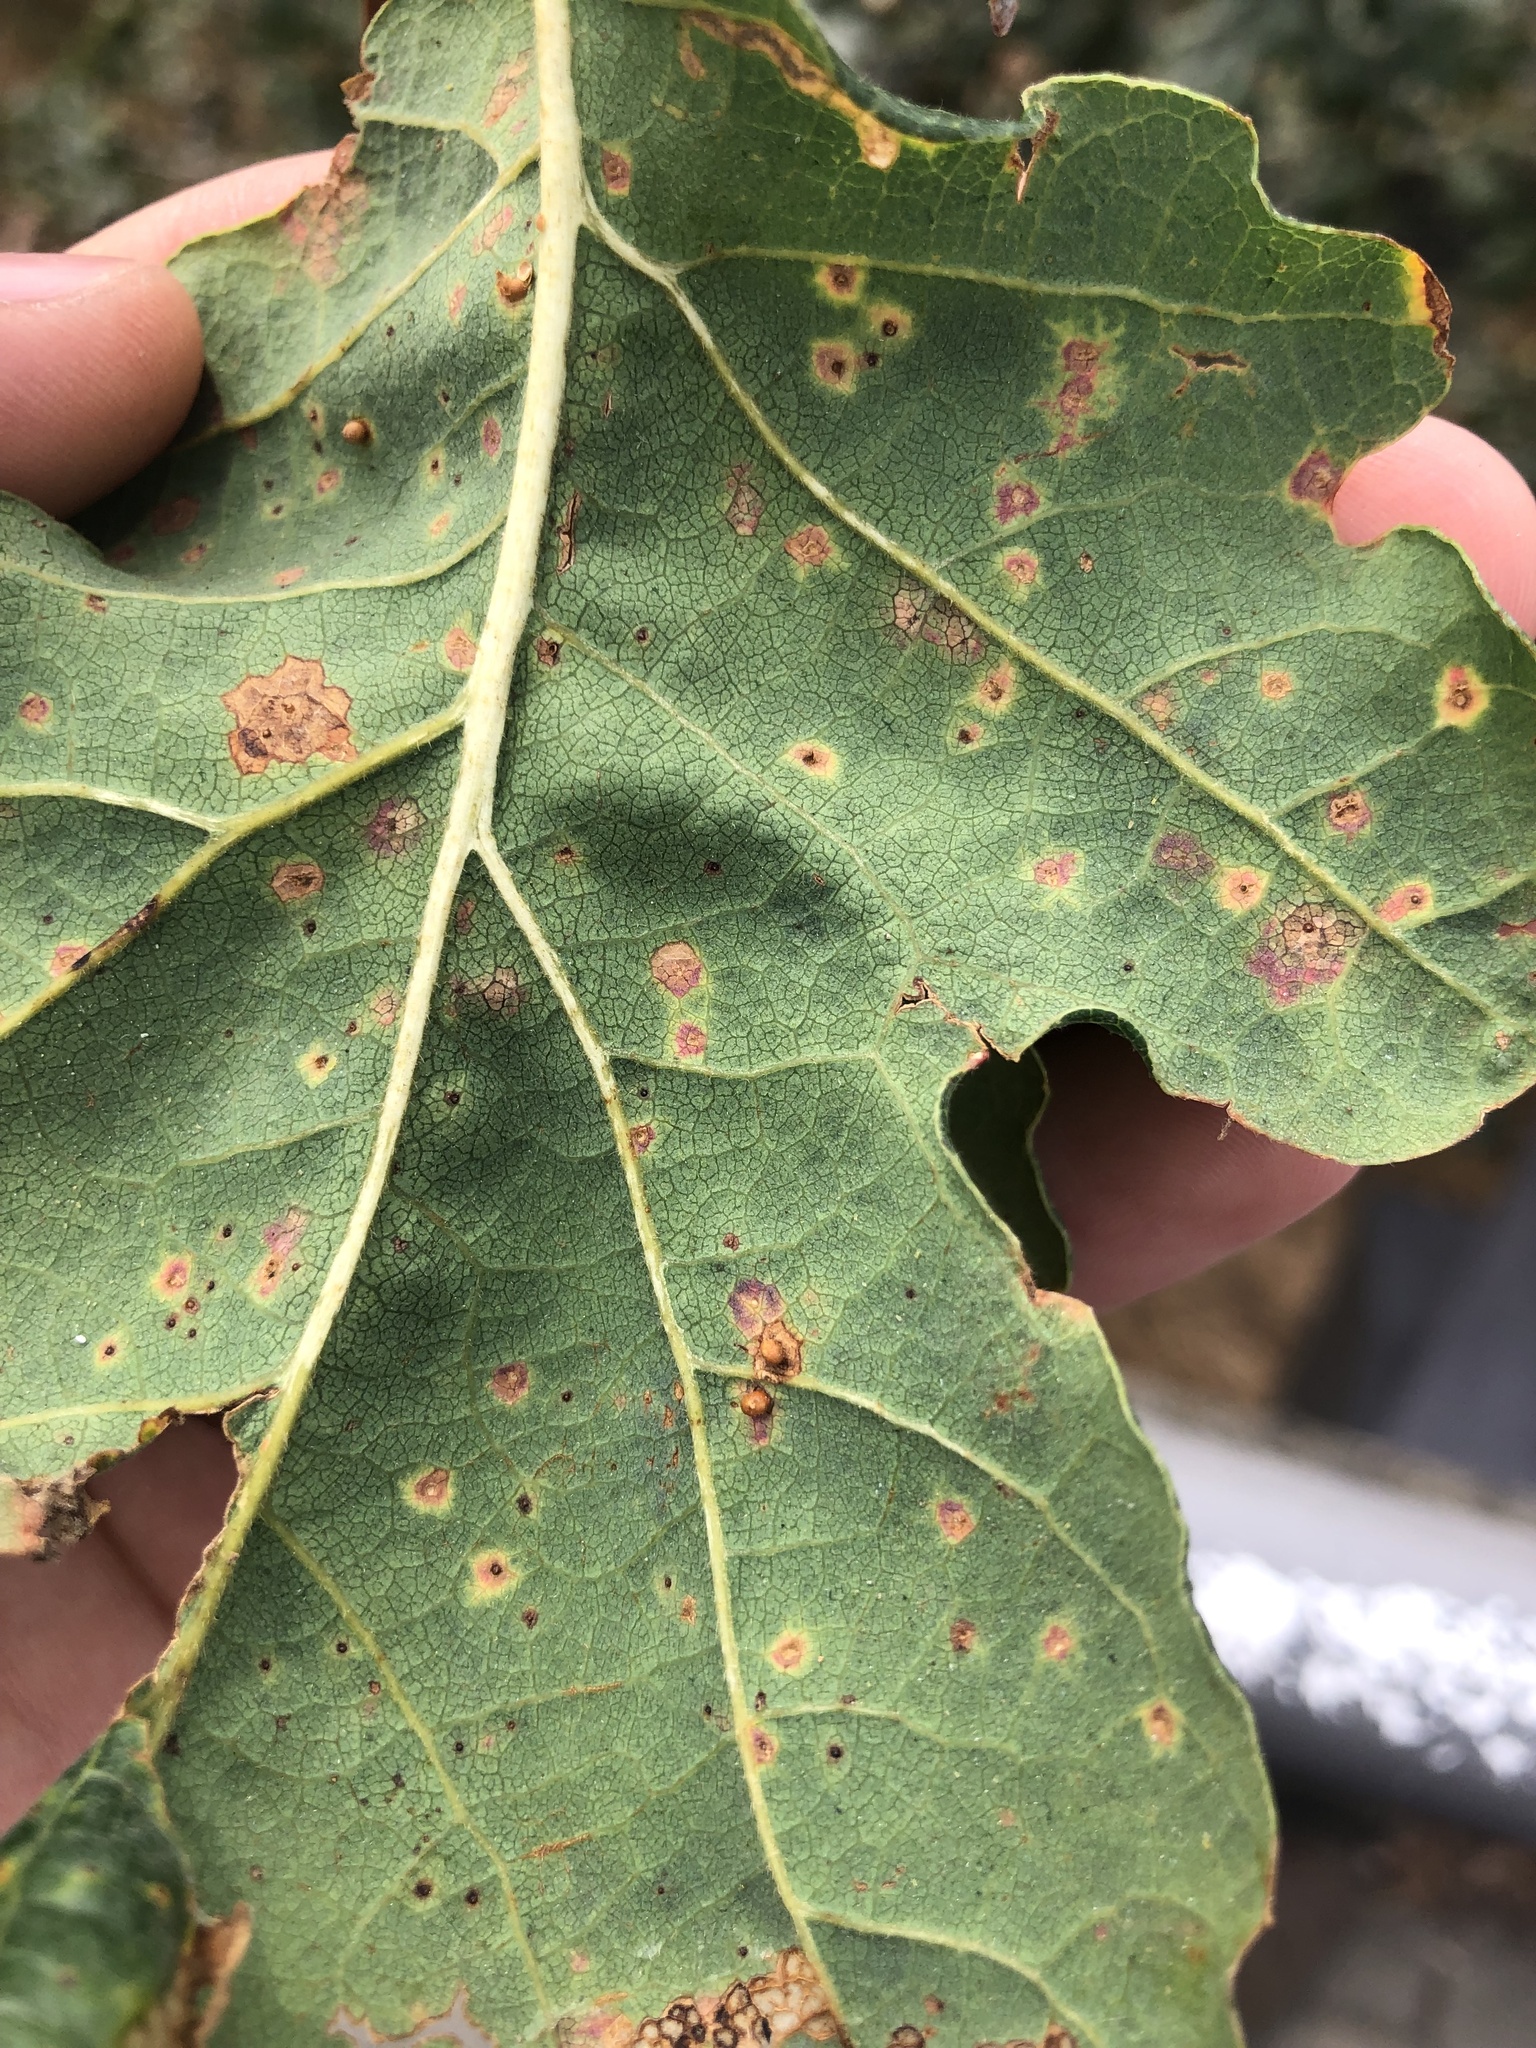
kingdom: Animalia
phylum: Arthropoda
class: Insecta
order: Hymenoptera
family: Cynipidae
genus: Neuroterus
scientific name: Neuroterus saltarius
